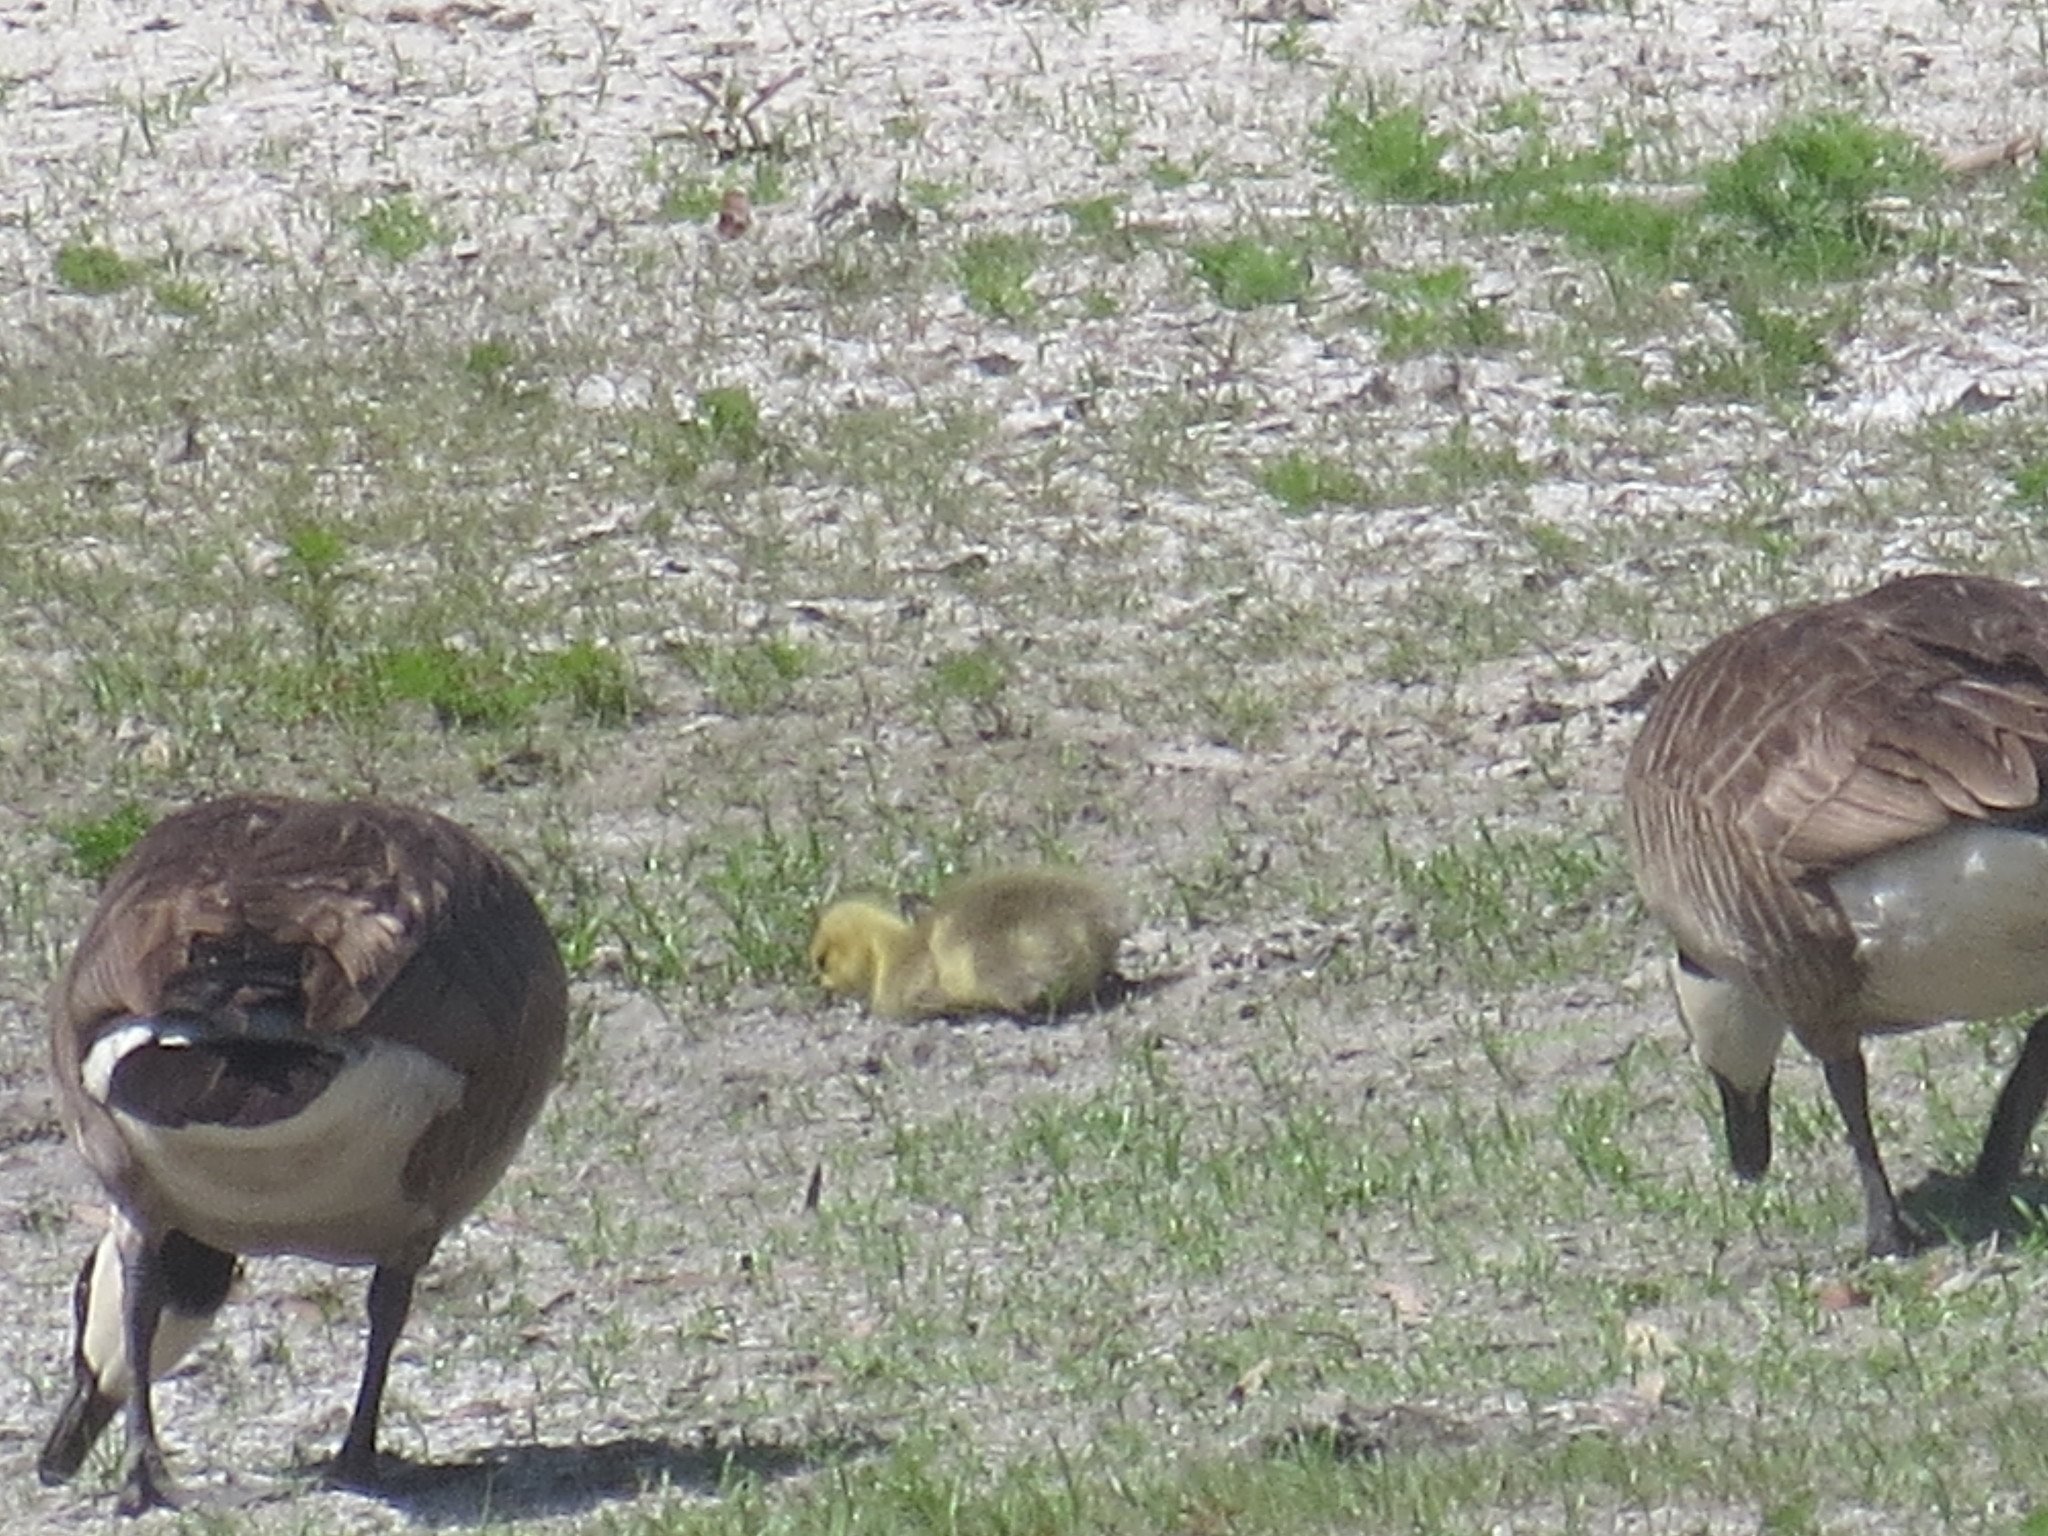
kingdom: Animalia
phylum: Chordata
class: Aves
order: Anseriformes
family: Anatidae
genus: Branta
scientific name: Branta canadensis
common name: Canada goose
